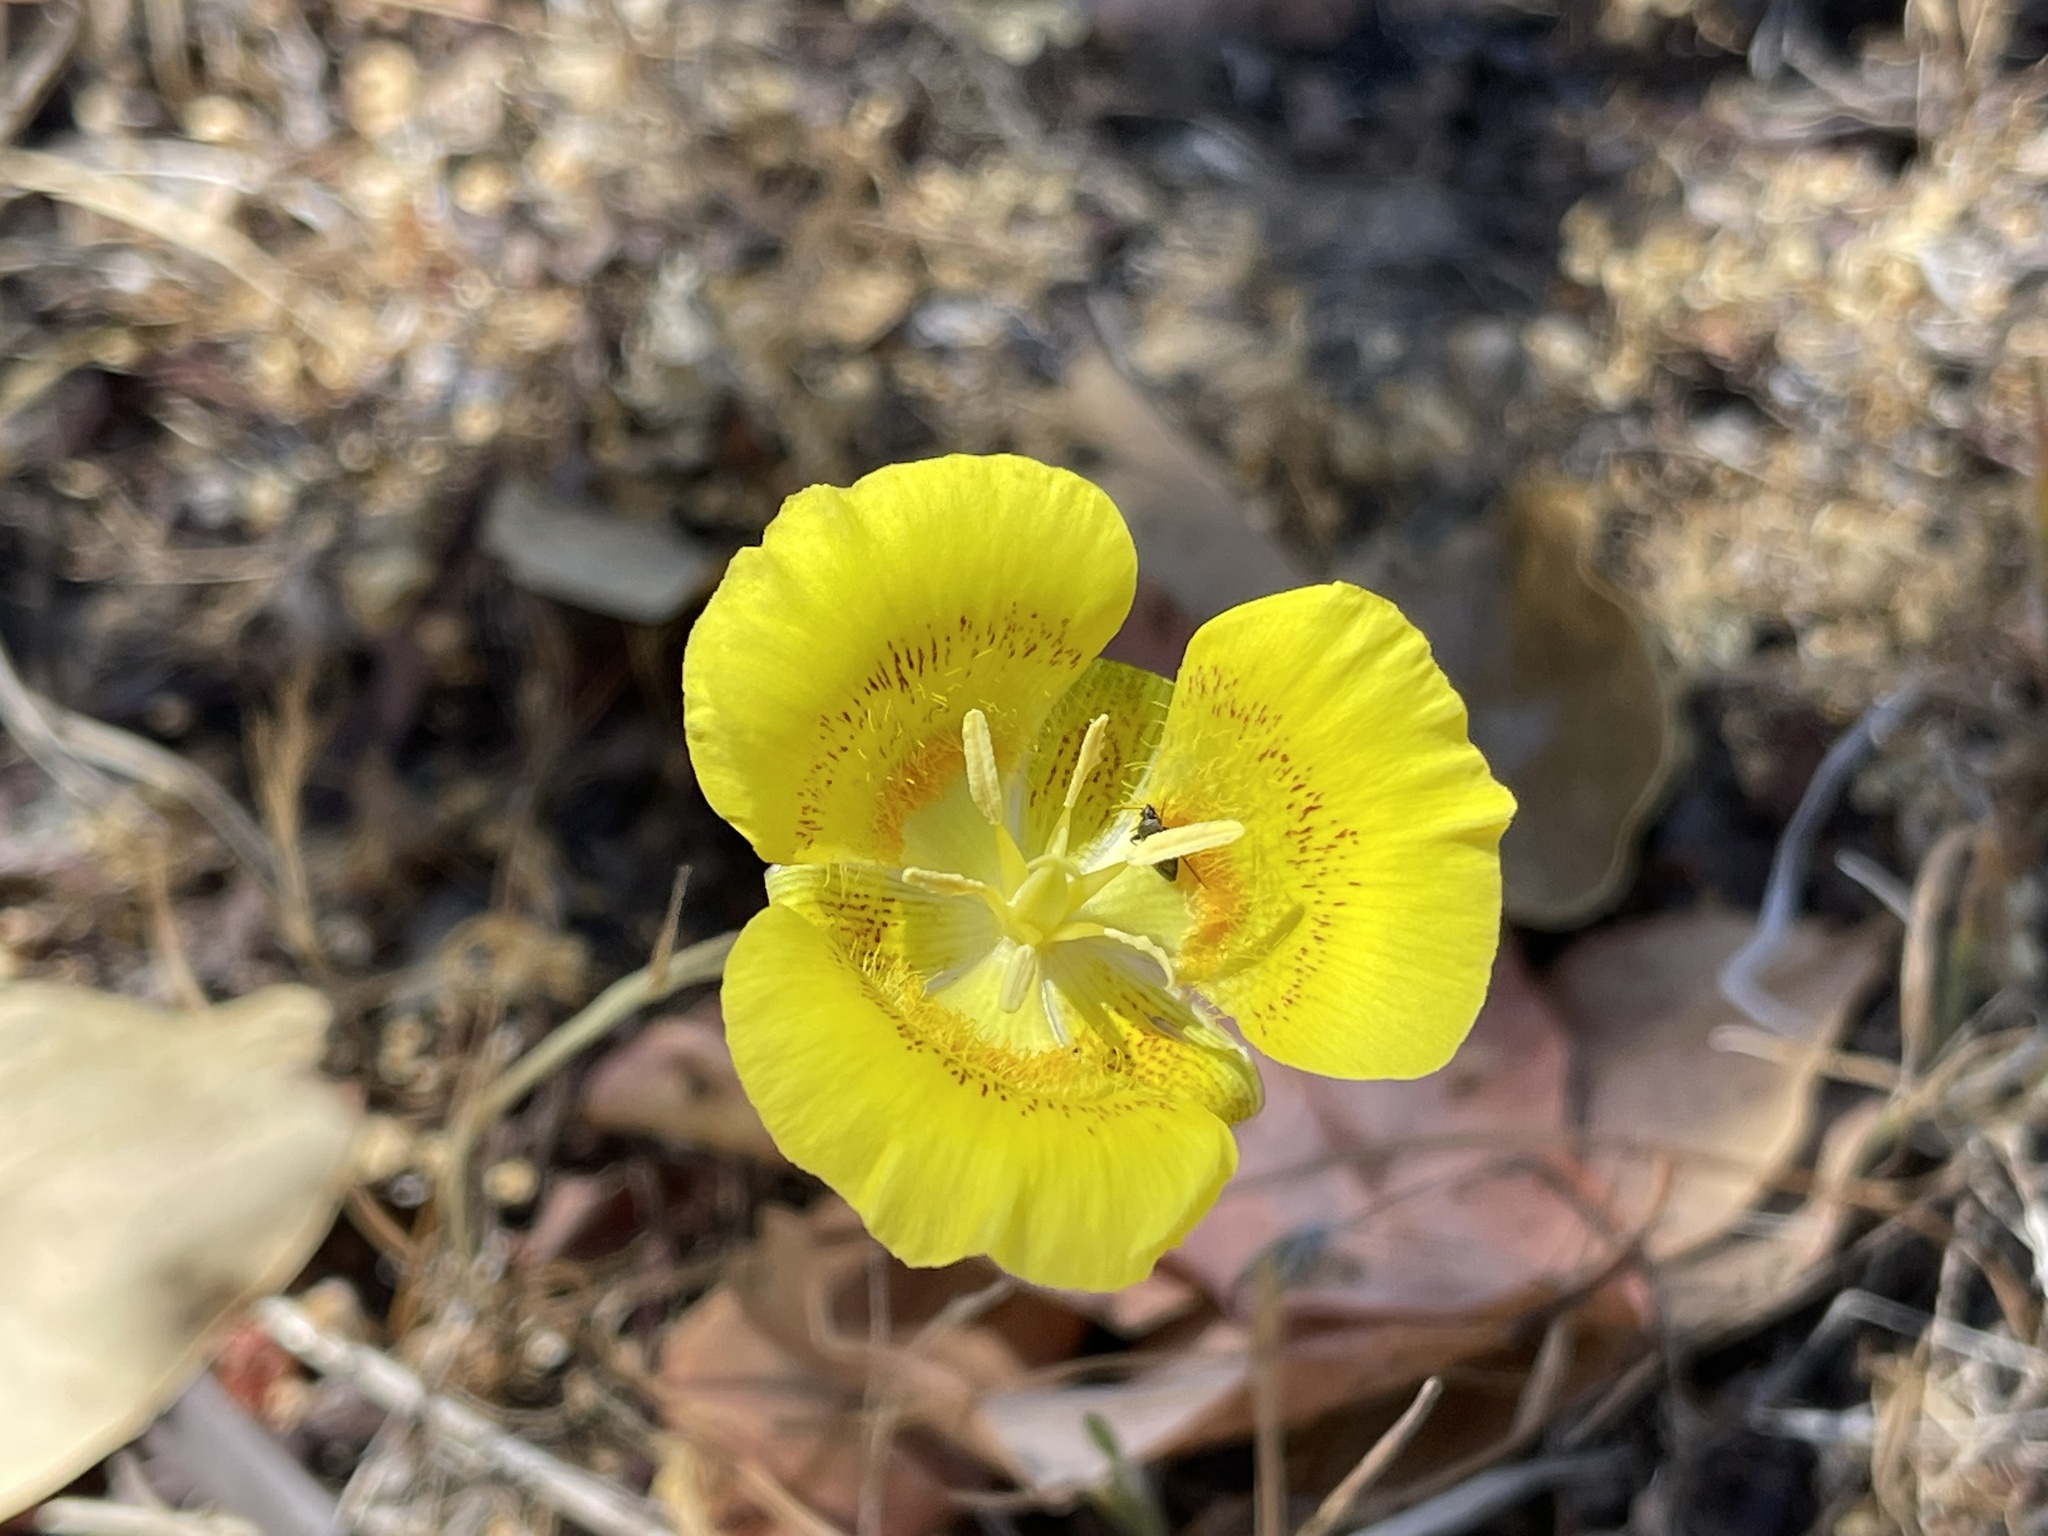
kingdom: Plantae
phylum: Tracheophyta
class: Liliopsida
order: Liliales
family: Liliaceae
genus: Calochortus
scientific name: Calochortus luteus
